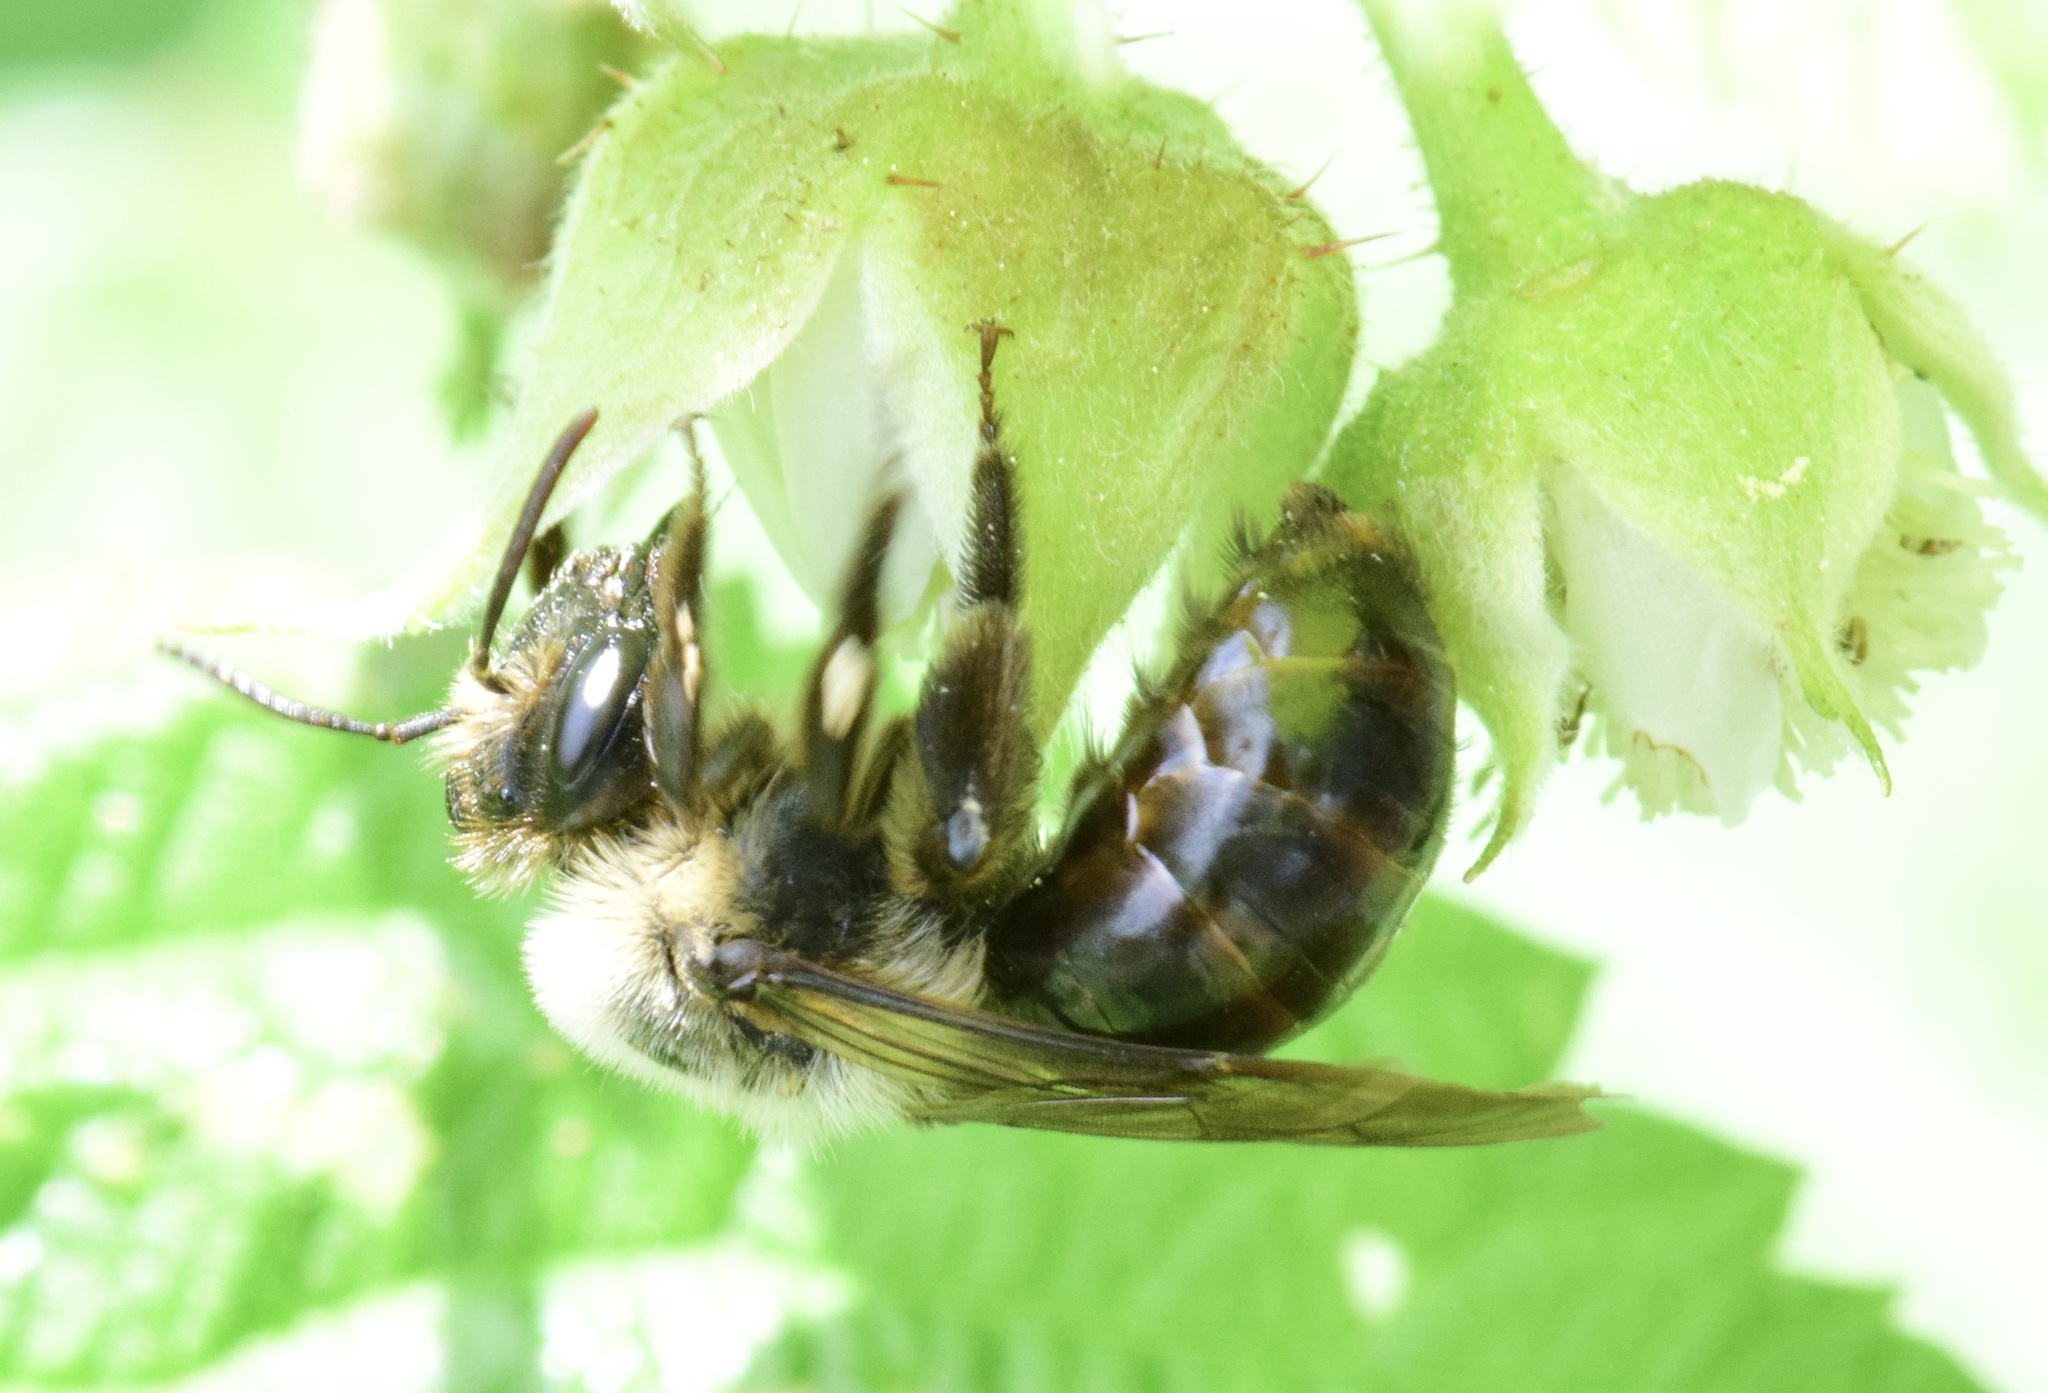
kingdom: Animalia
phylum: Arthropoda
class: Insecta
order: Hymenoptera
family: Andrenidae
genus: Andrena
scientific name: Andrena vicina
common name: Neighborly mining bee
